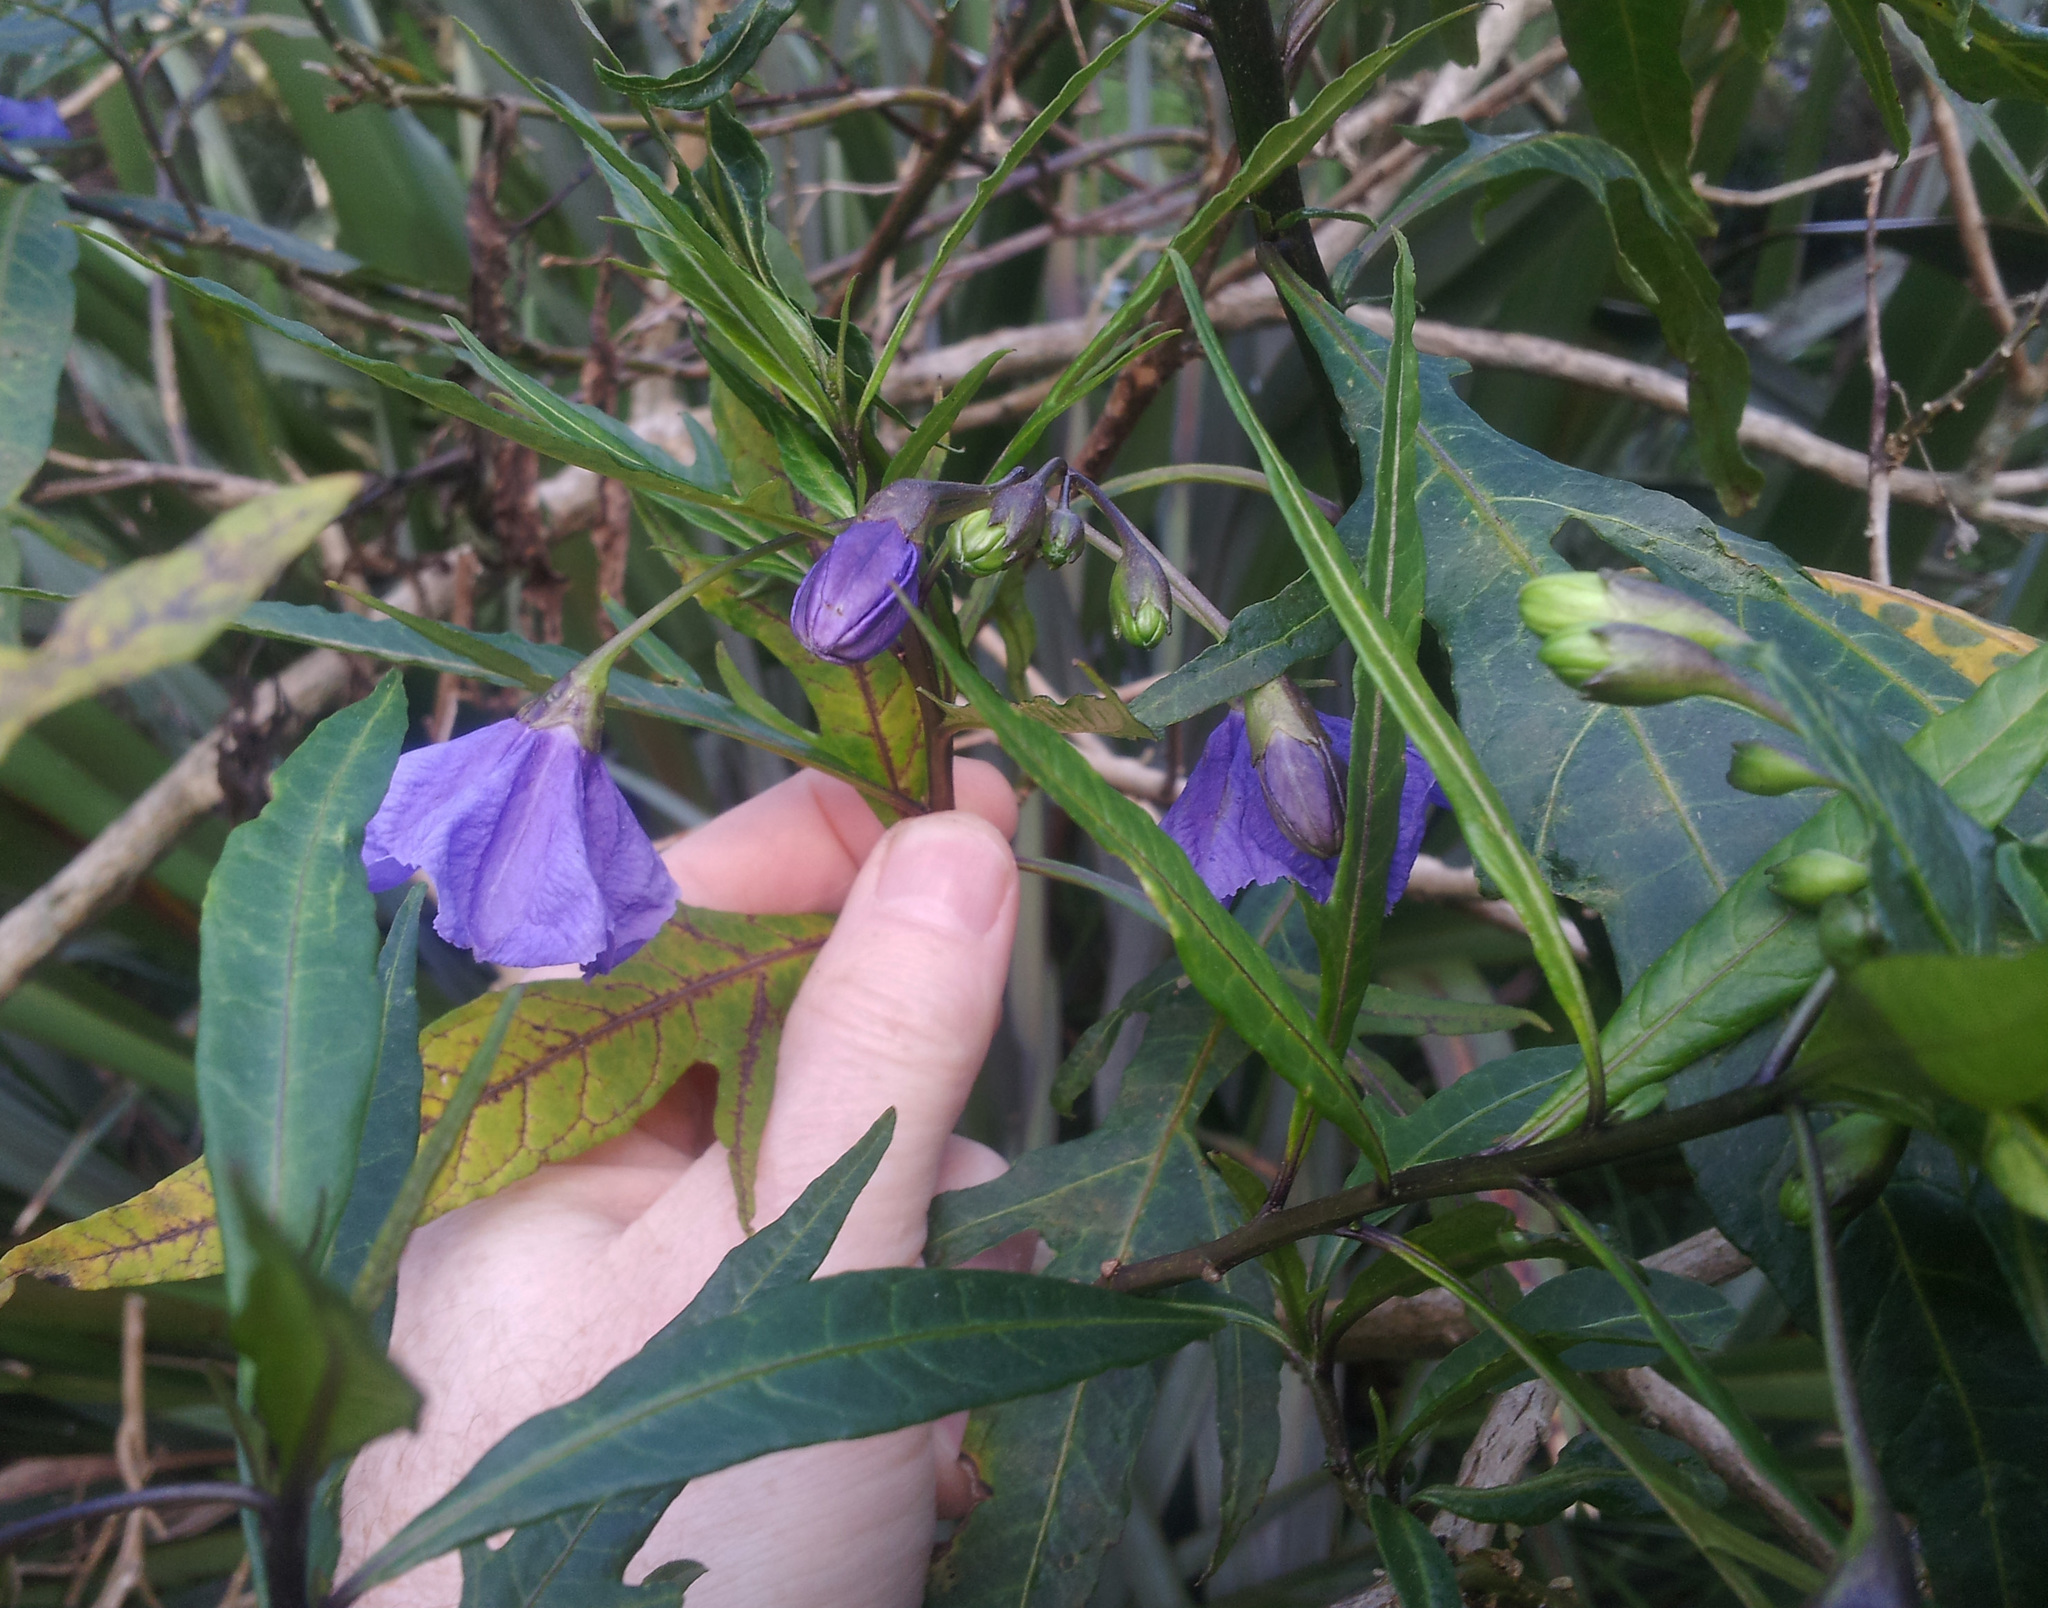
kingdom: Plantae
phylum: Tracheophyta
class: Magnoliopsida
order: Solanales
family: Solanaceae
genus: Solanum
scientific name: Solanum laciniatum
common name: Kangaroo-apple
